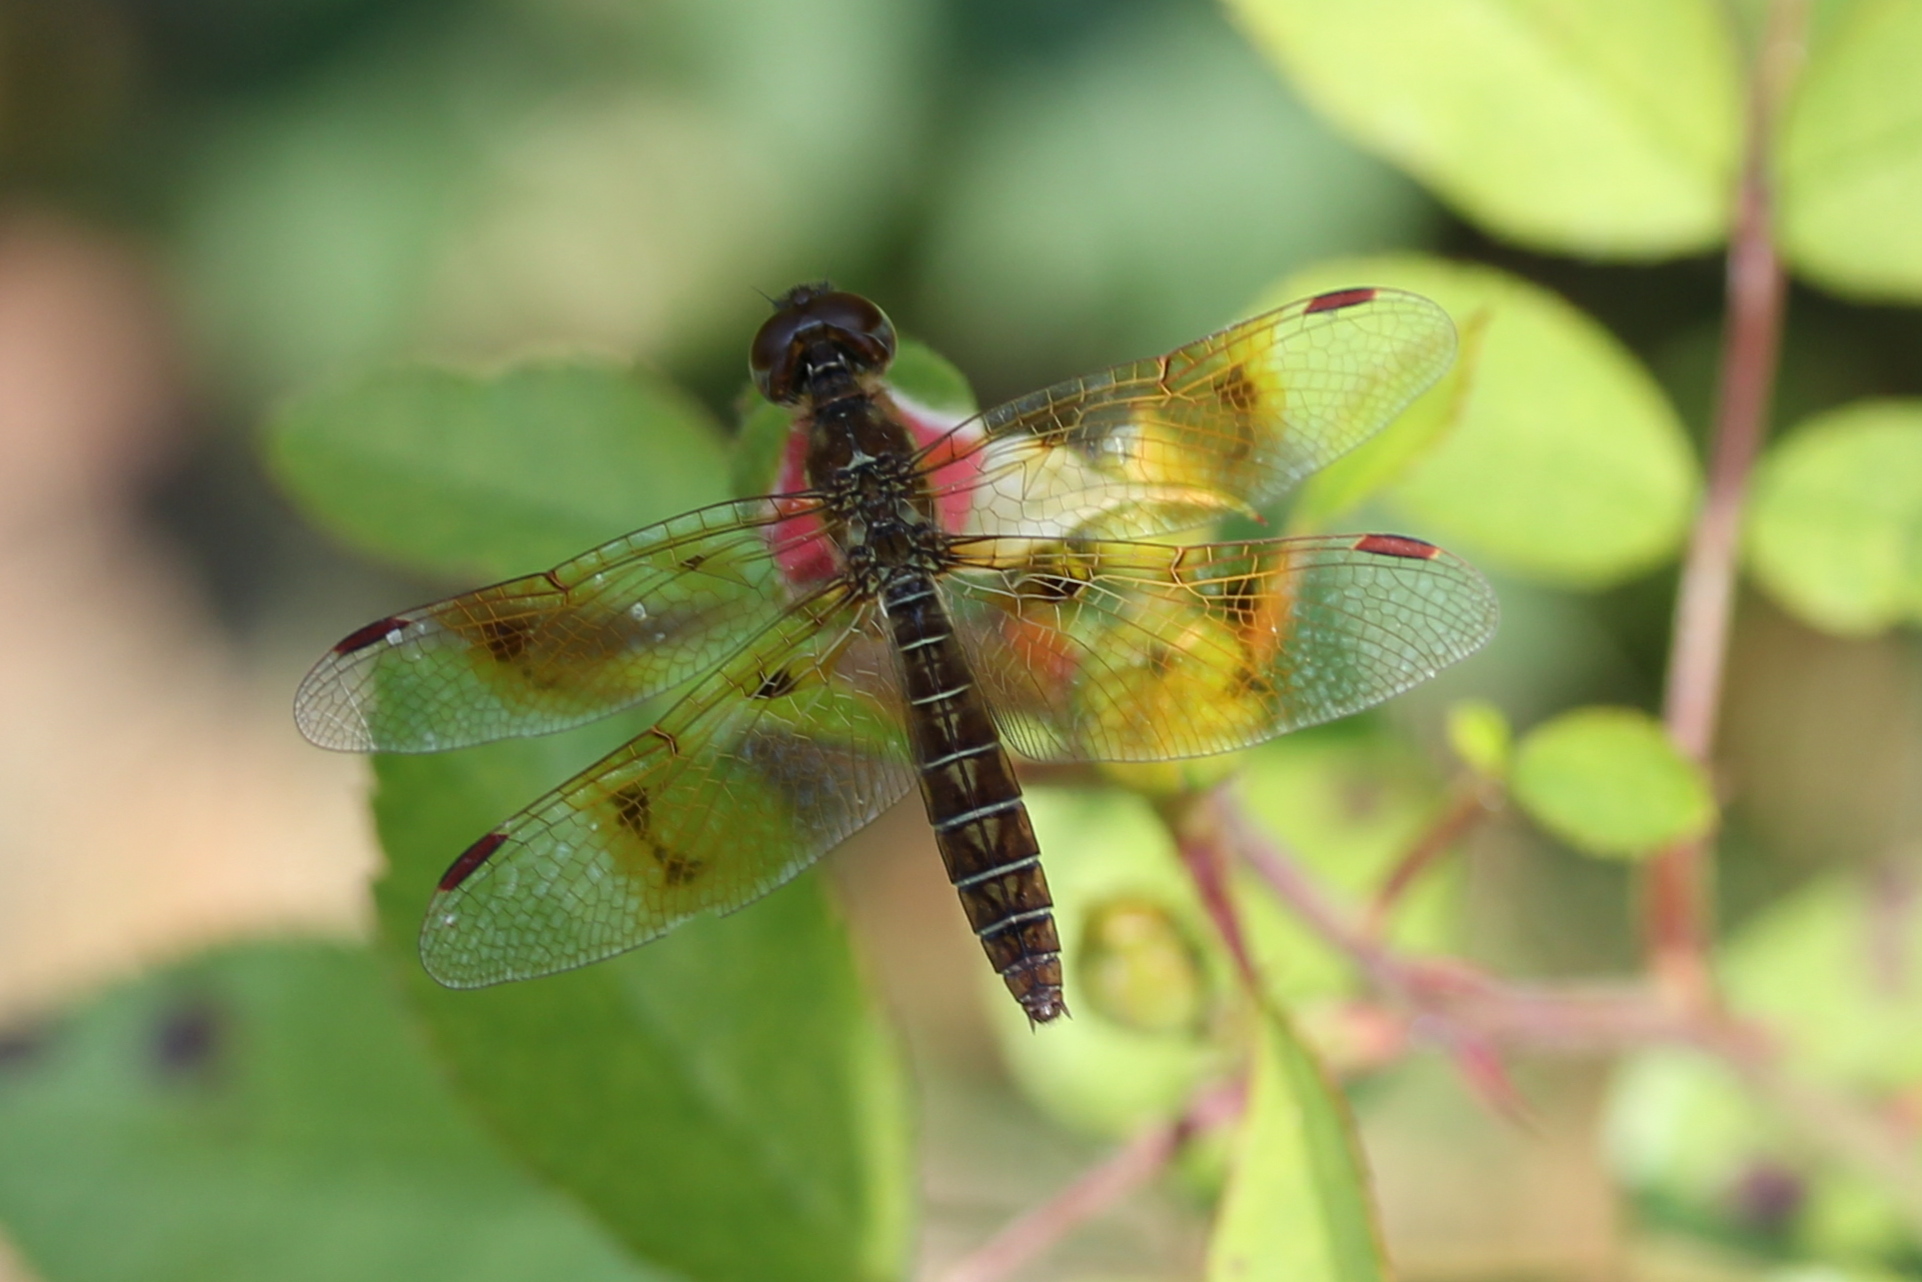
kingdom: Animalia
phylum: Arthropoda
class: Insecta
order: Odonata
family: Libellulidae
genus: Perithemis
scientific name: Perithemis tenera
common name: Eastern amberwing
